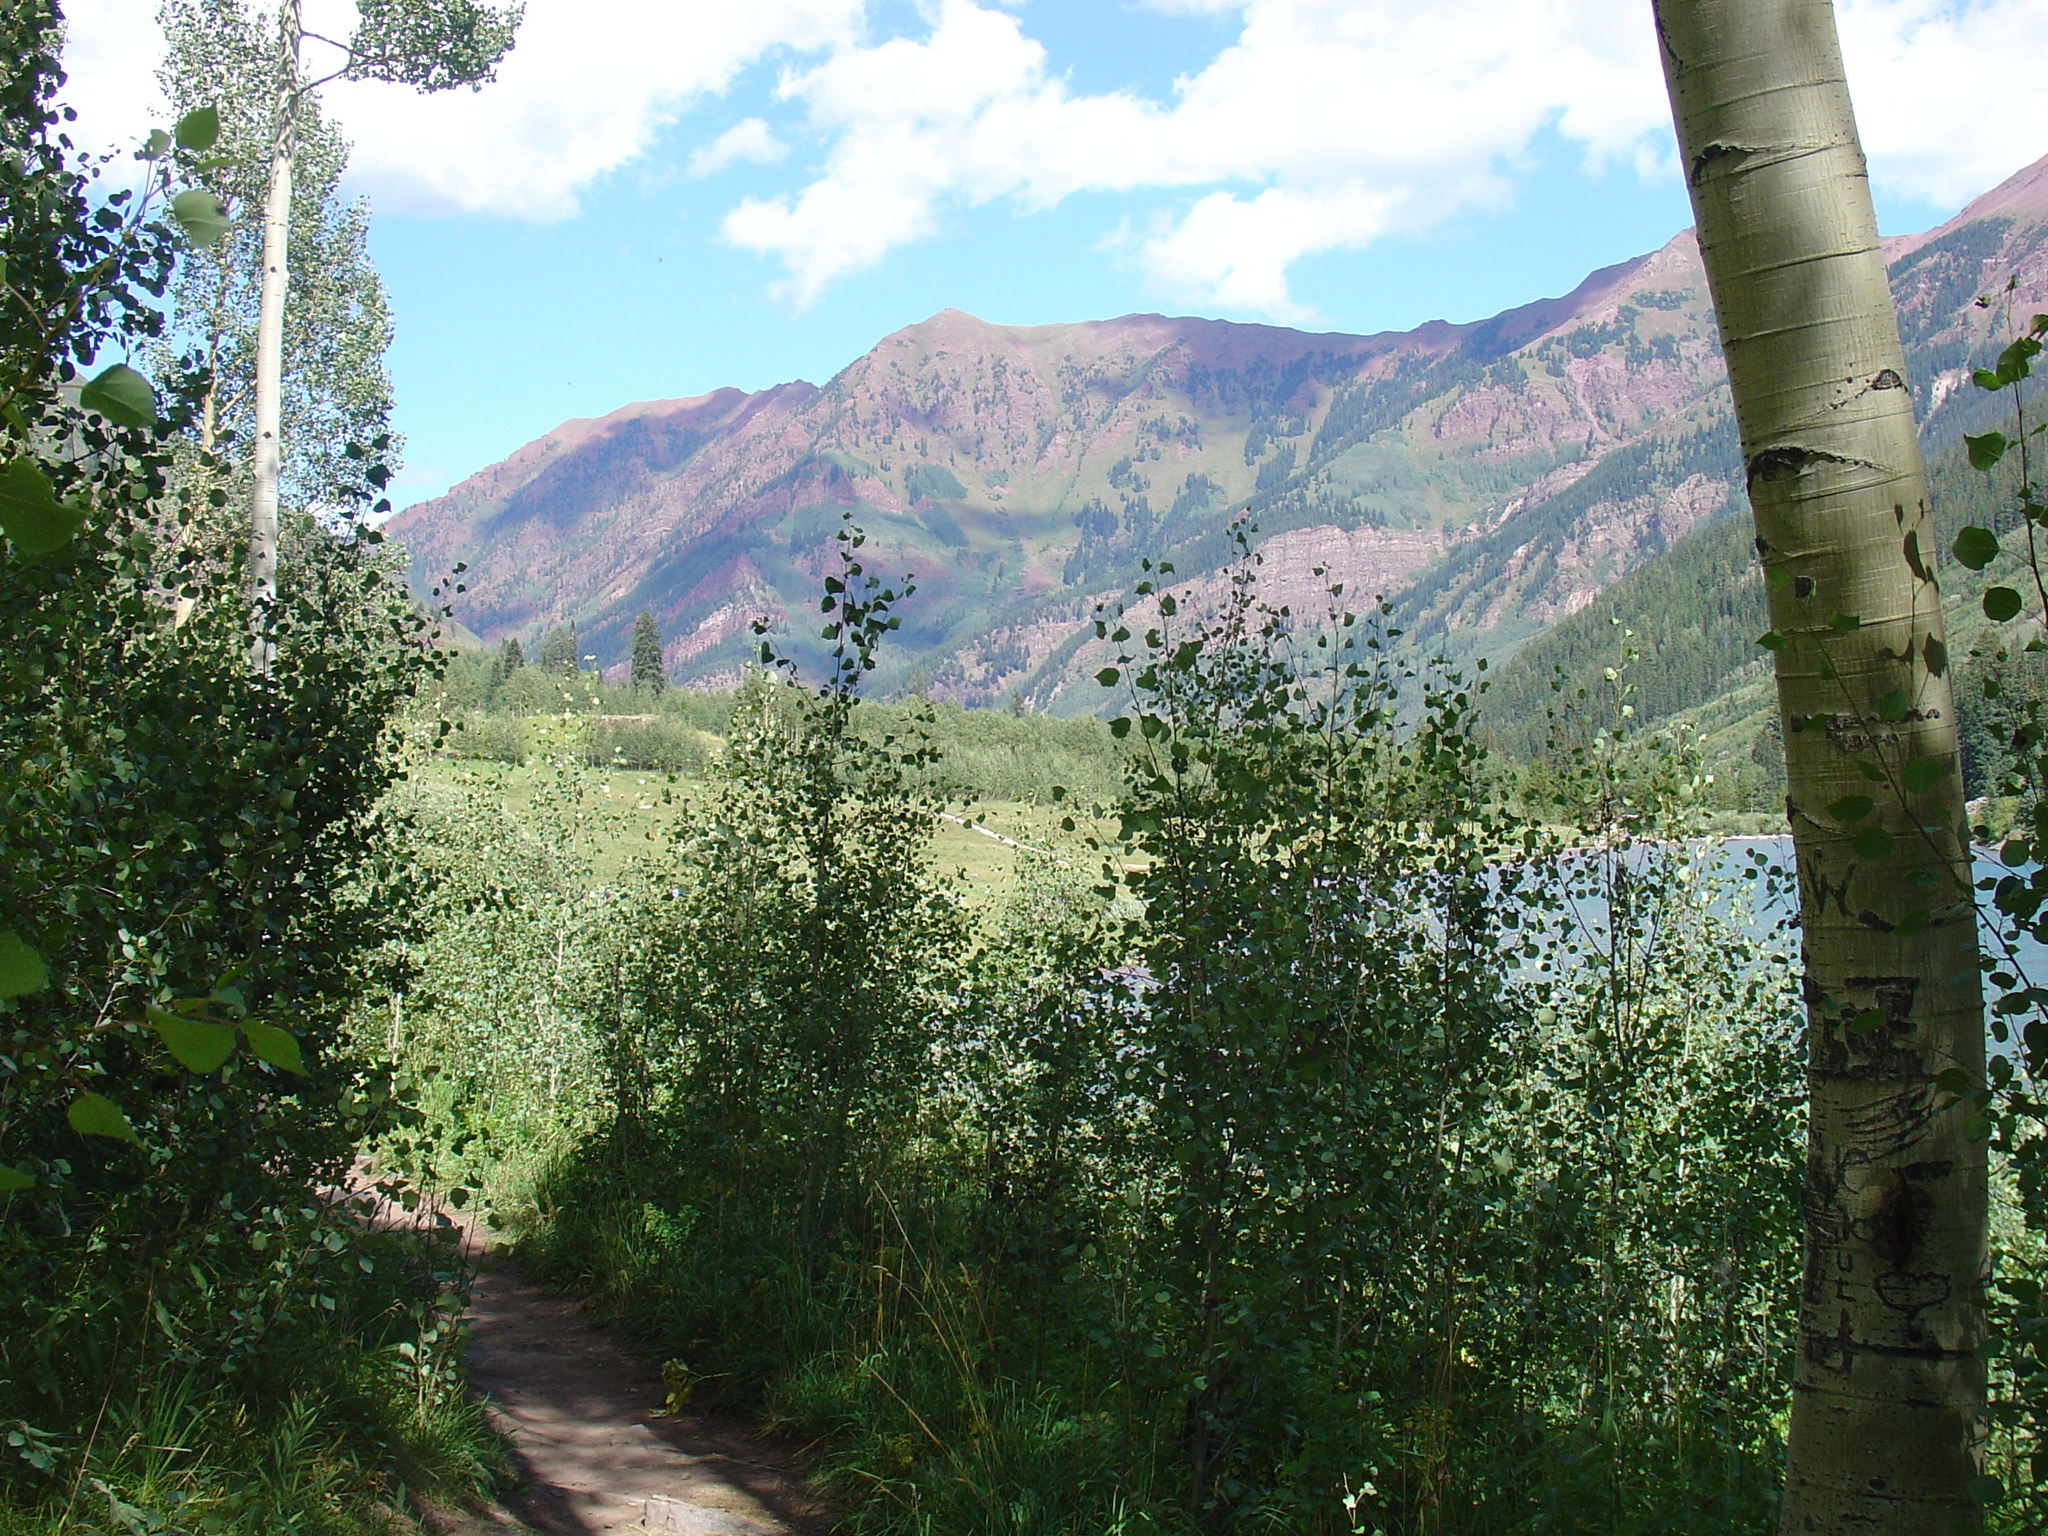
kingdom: Plantae
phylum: Tracheophyta
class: Magnoliopsida
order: Malpighiales
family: Salicaceae
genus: Populus
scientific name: Populus tremuloides
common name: Quaking aspen
